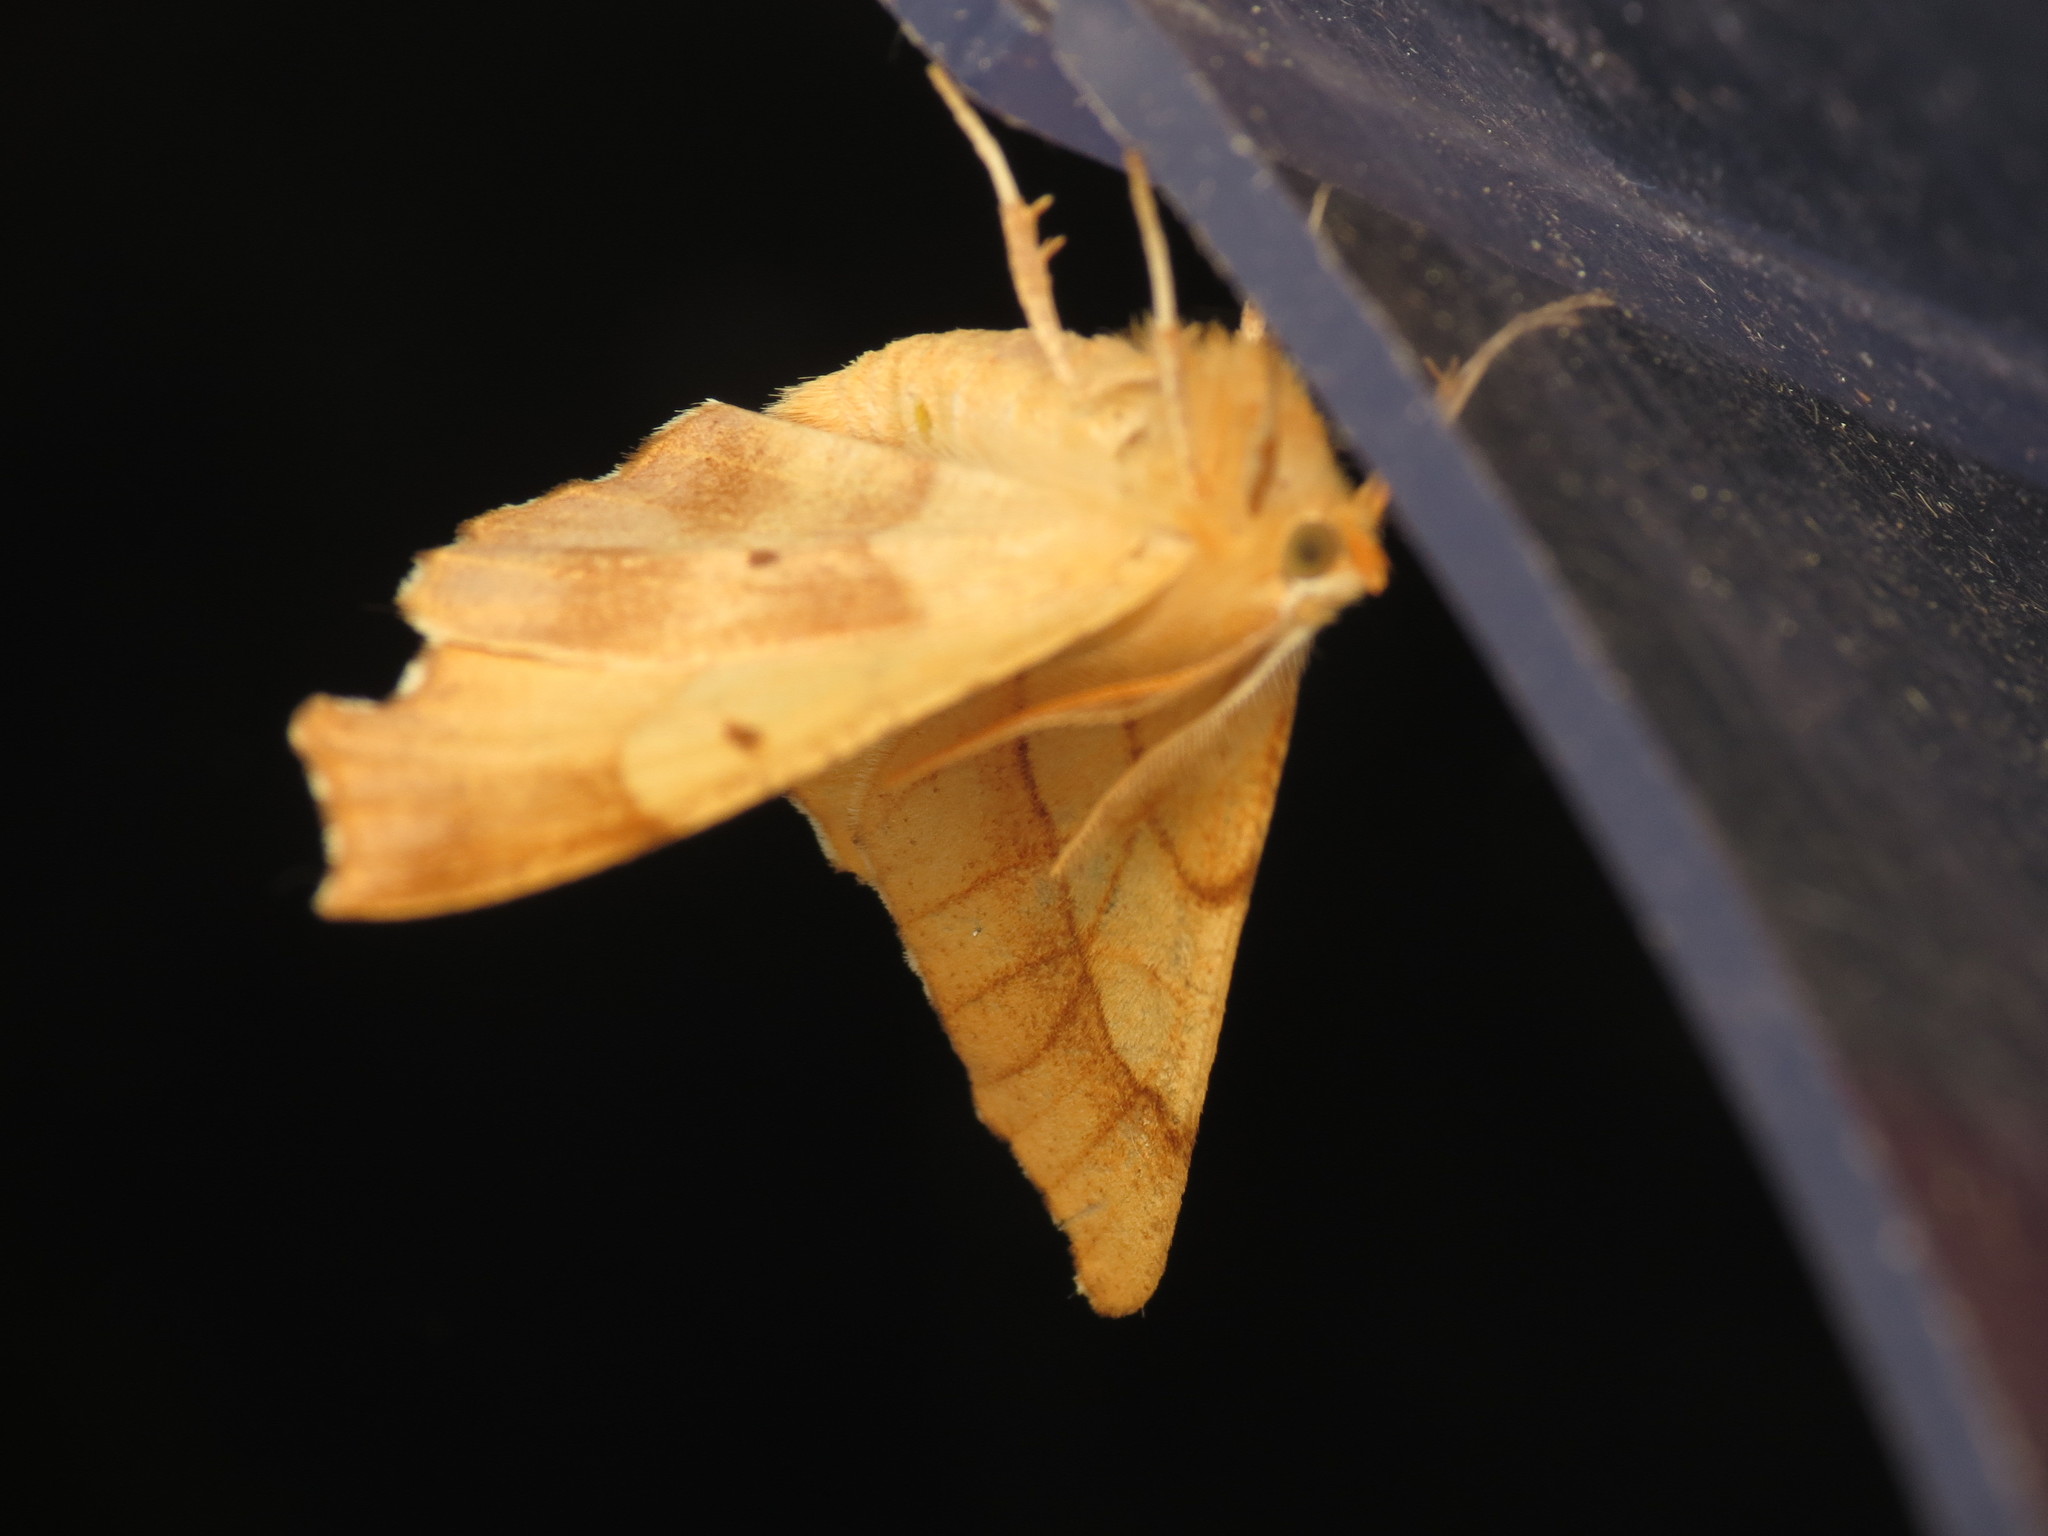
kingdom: Animalia
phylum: Arthropoda
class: Insecta
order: Lepidoptera
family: Geometridae
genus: Ennomos
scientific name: Ennomos quercinaria
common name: August thorn
